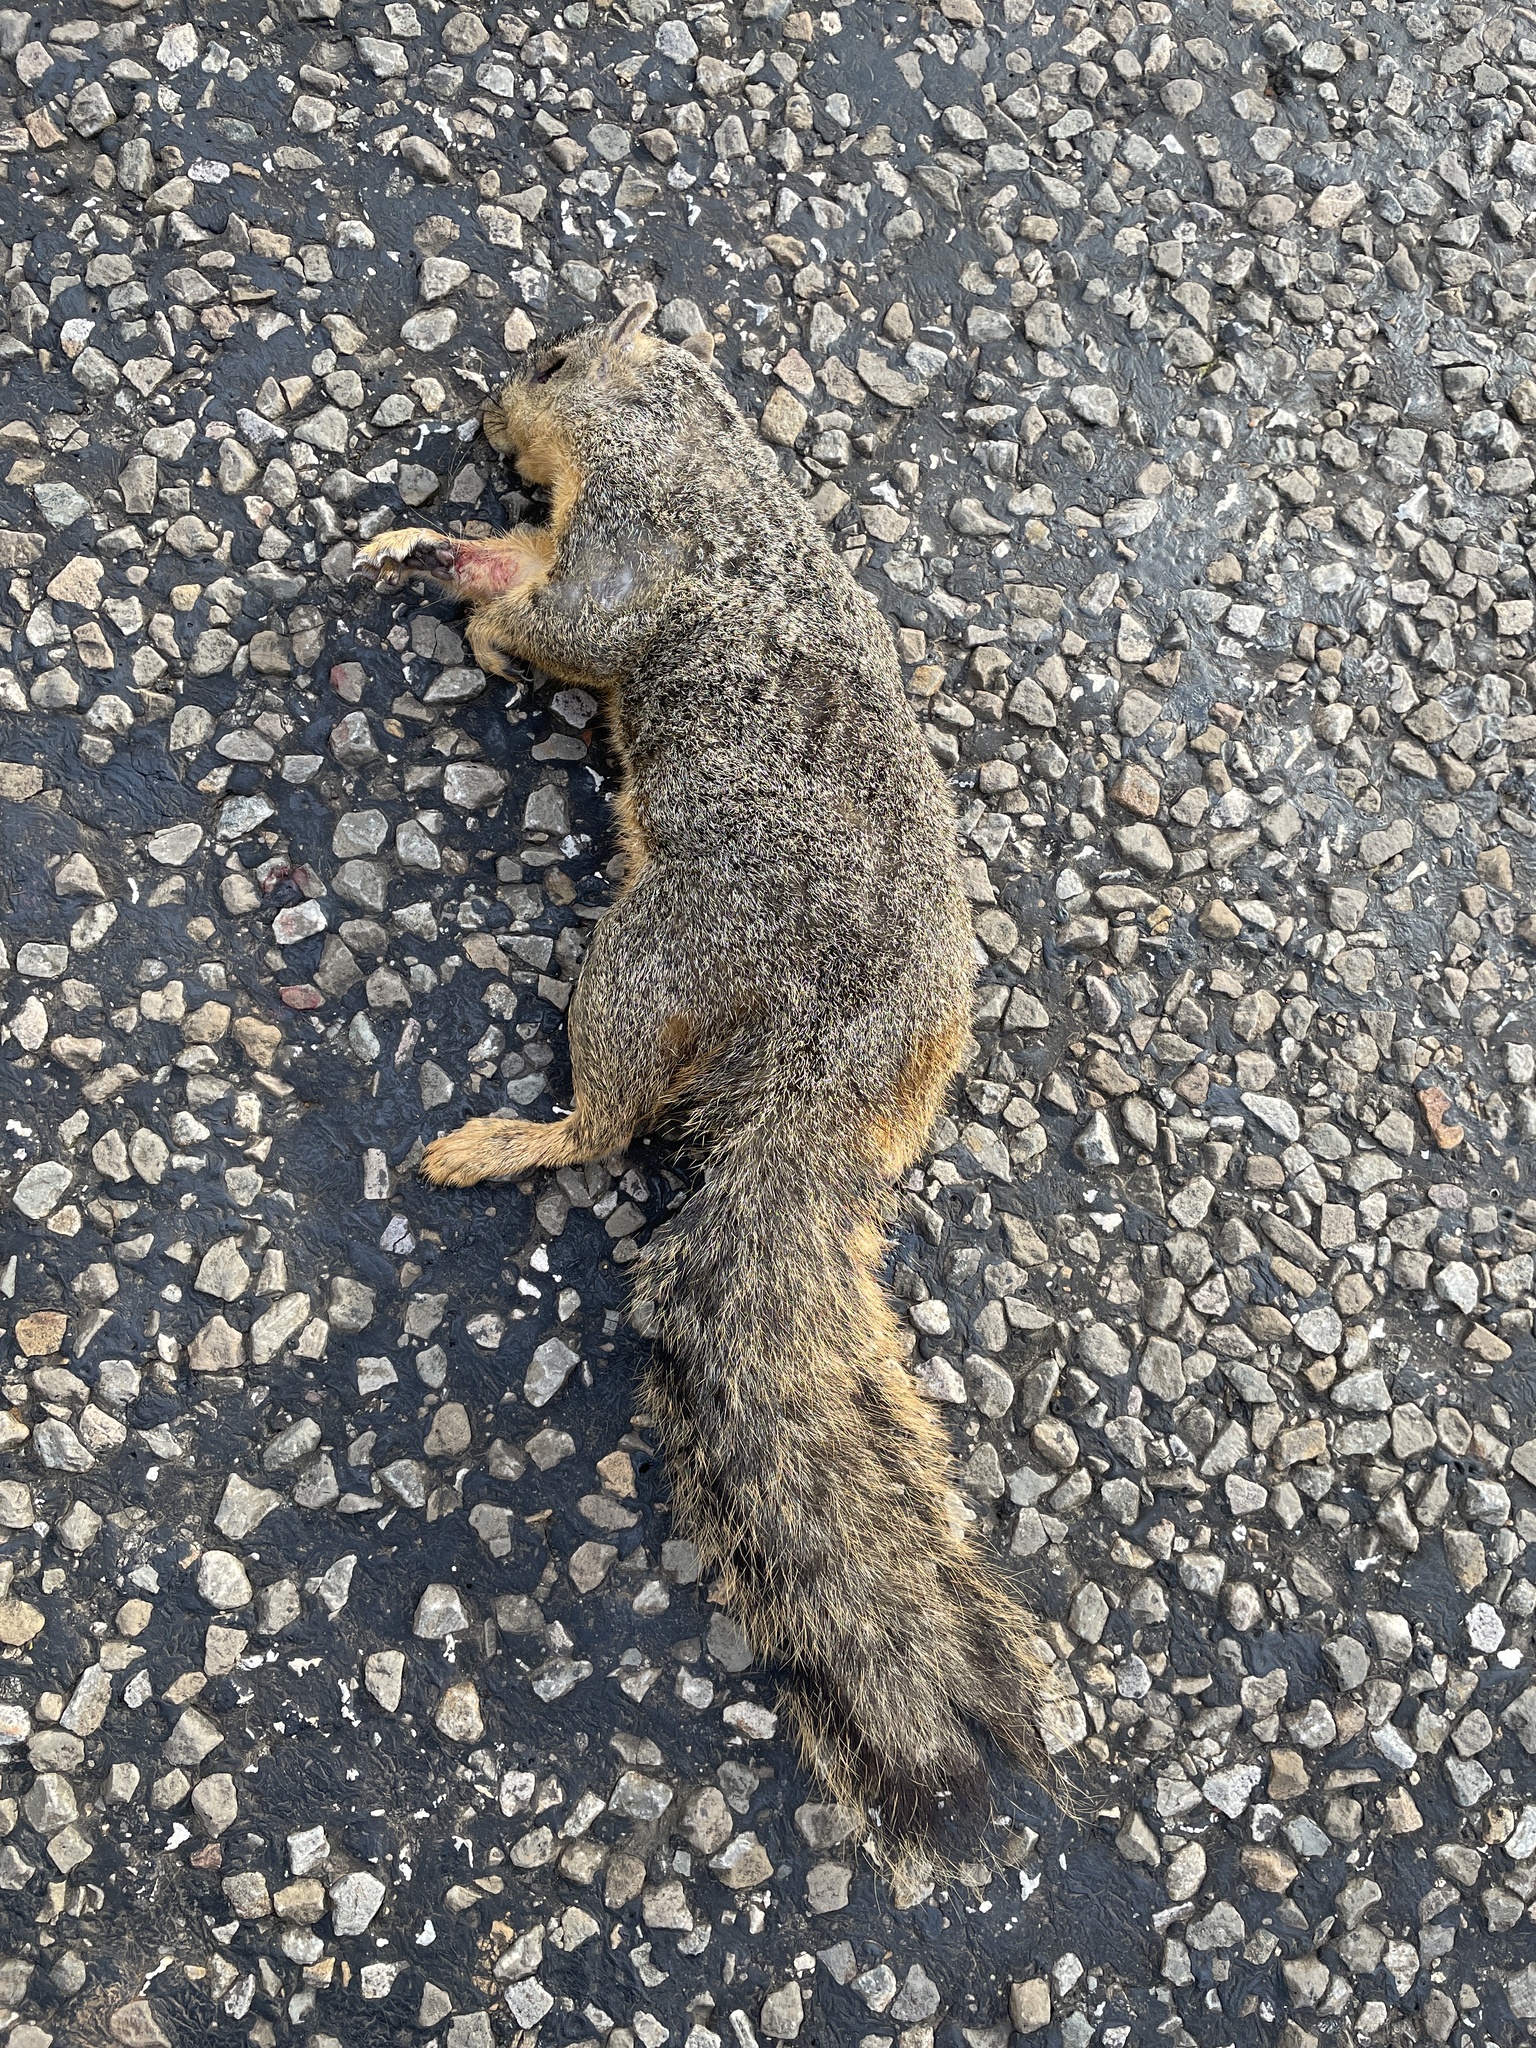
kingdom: Animalia
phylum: Chordata
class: Mammalia
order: Rodentia
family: Sciuridae
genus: Sciurus
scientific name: Sciurus niger
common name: Fox squirrel
